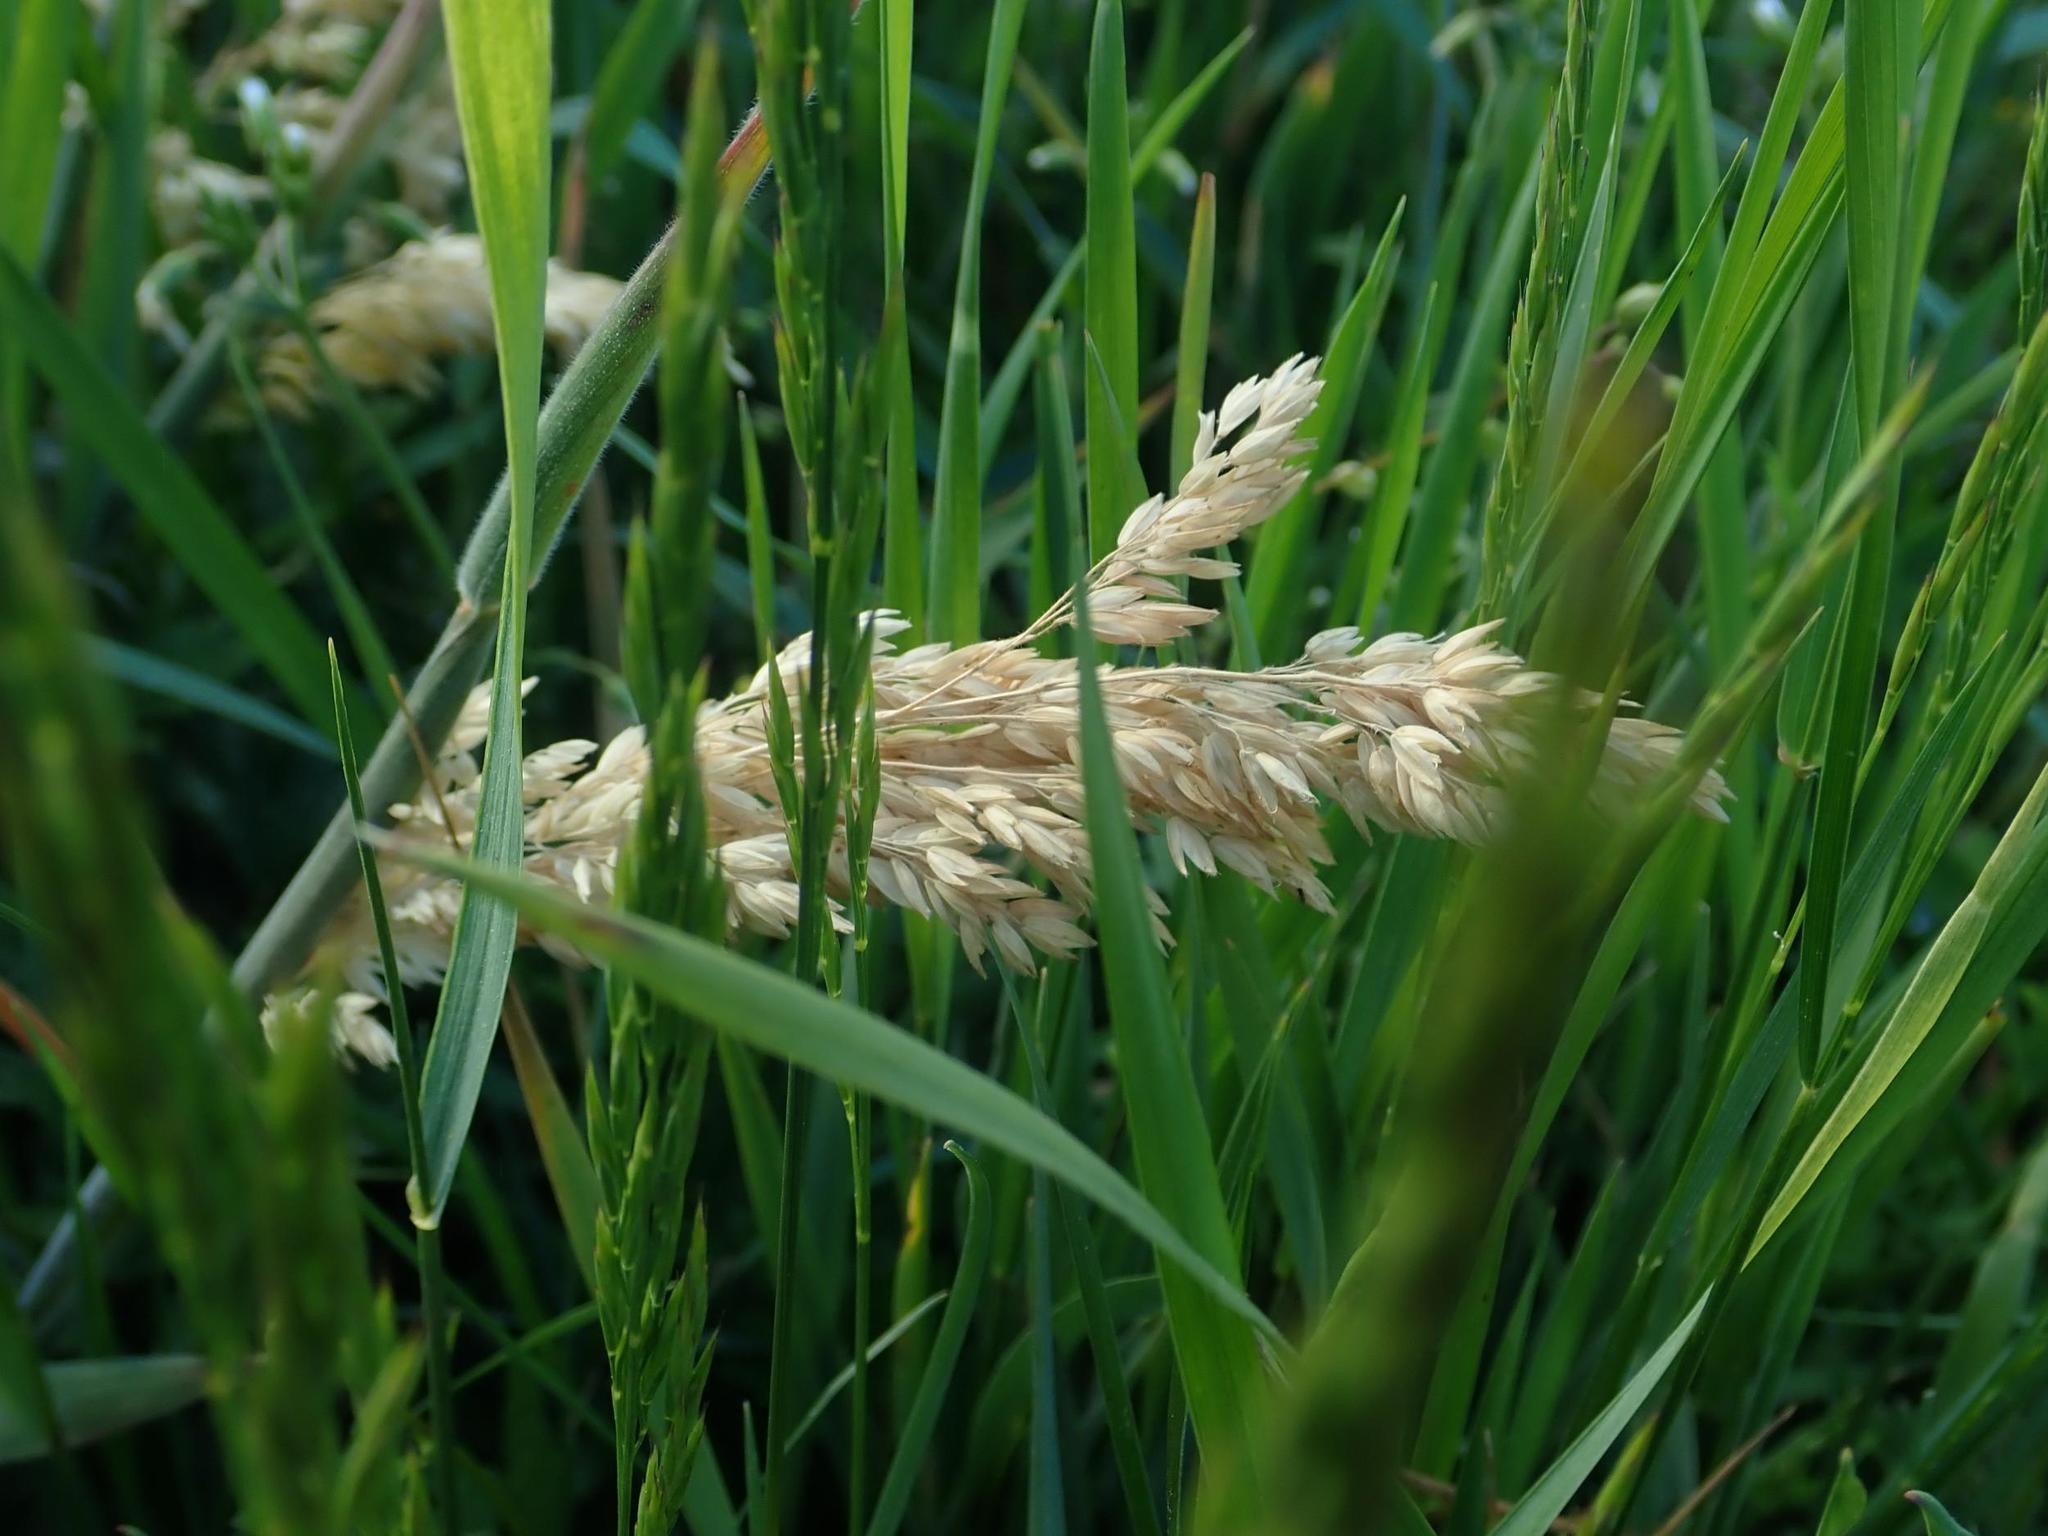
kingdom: Plantae
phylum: Tracheophyta
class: Liliopsida
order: Poales
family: Poaceae
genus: Holcus
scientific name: Holcus lanatus
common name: Yorkshire-fog
